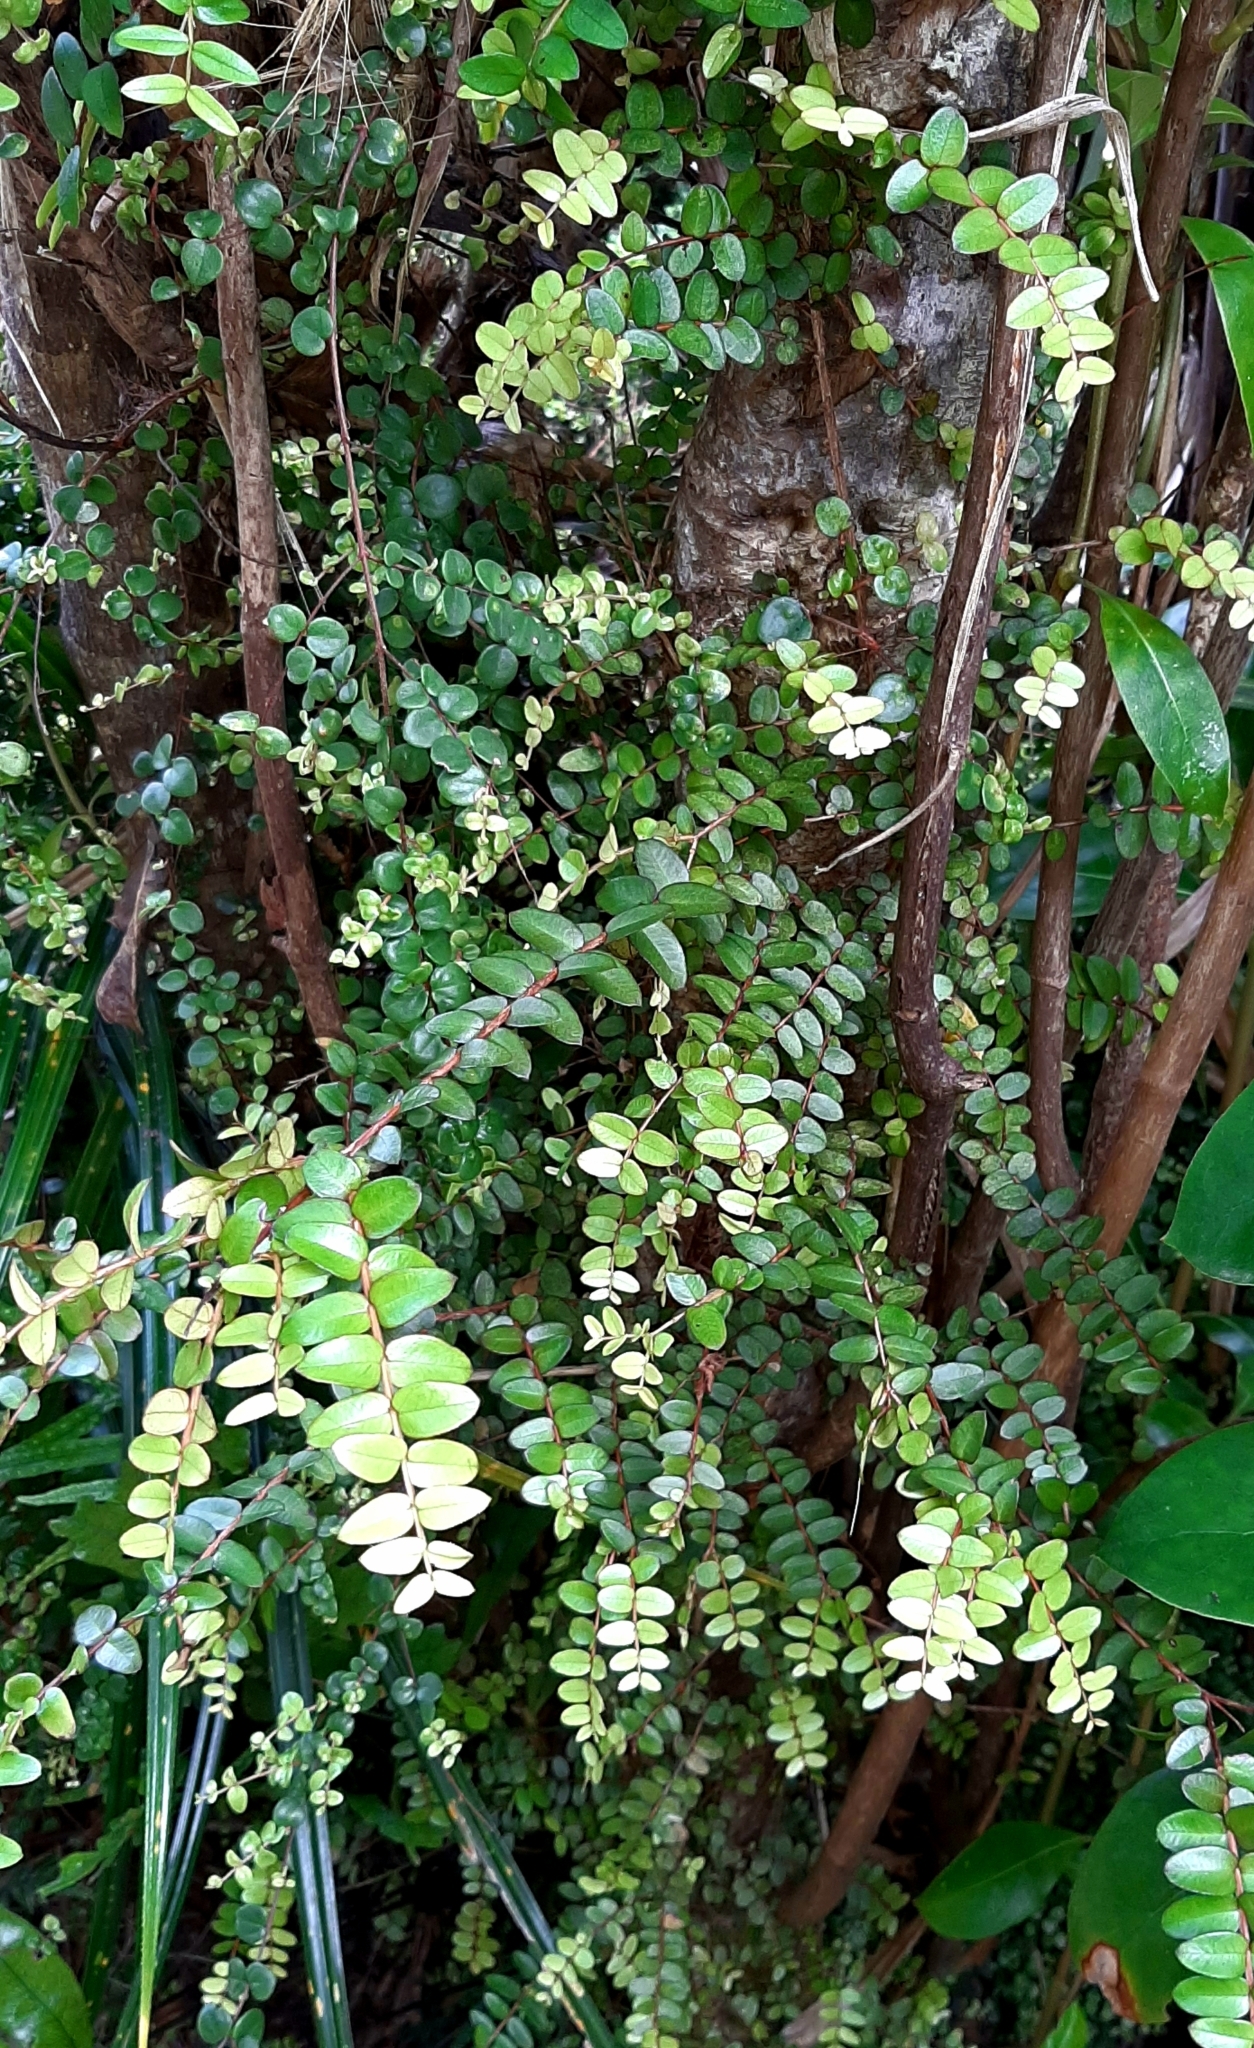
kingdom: Plantae
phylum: Tracheophyta
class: Magnoliopsida
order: Myrtales
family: Myrtaceae
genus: Metrosideros
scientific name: Metrosideros diffusa
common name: Small ratavine
